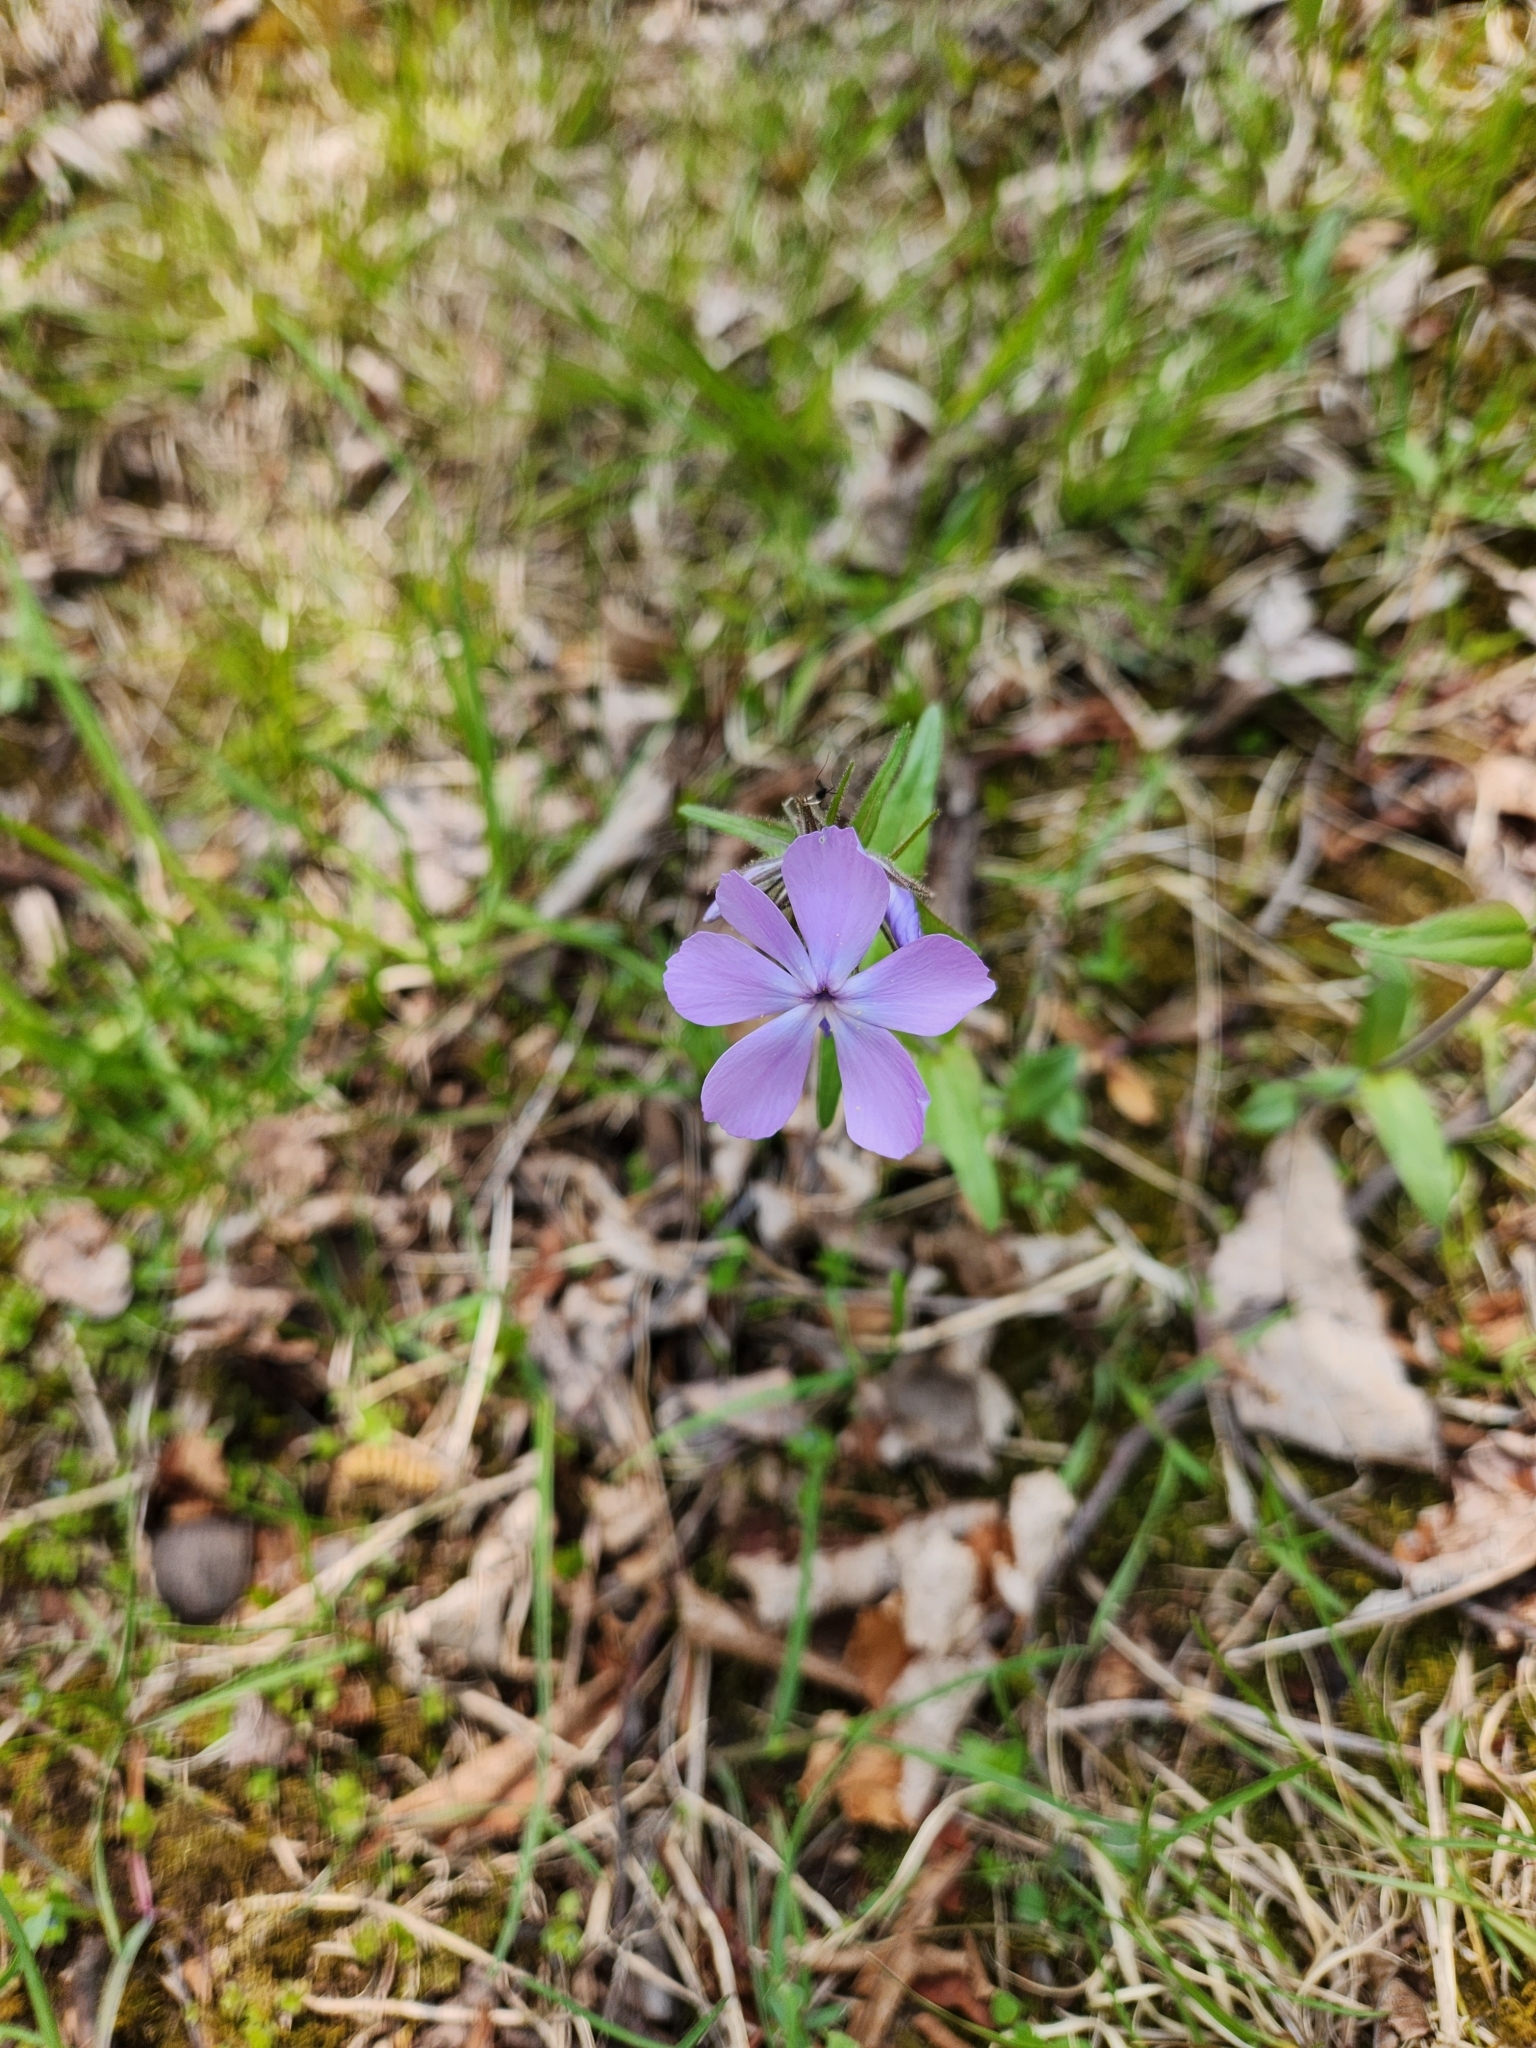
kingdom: Plantae
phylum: Tracheophyta
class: Magnoliopsida
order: Ericales
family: Polemoniaceae
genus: Phlox
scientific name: Phlox divaricata
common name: Blue phlox
